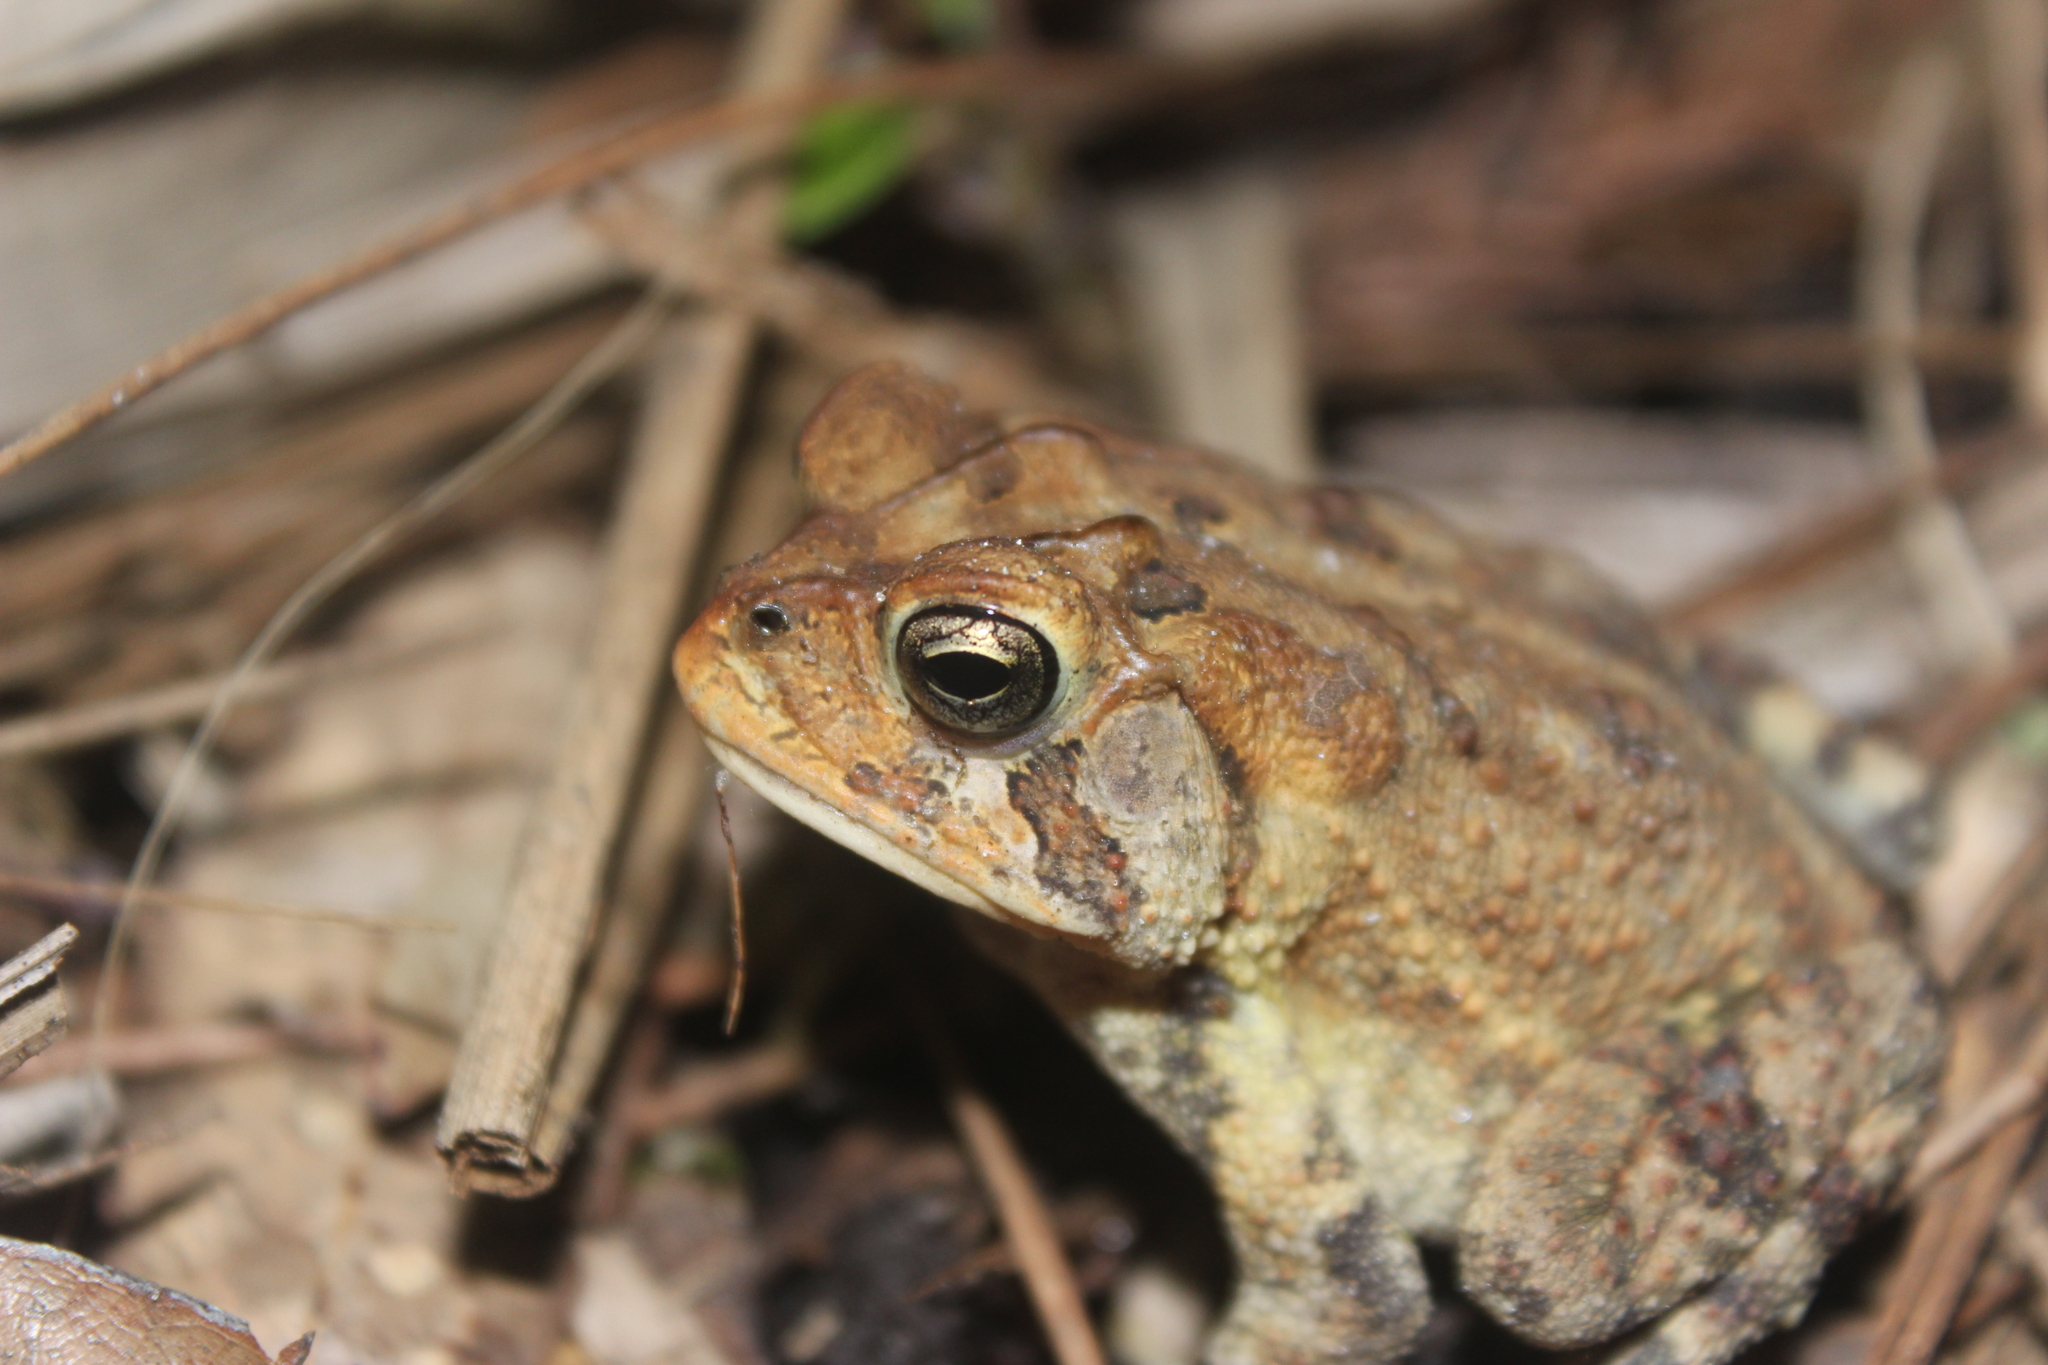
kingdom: Animalia
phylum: Chordata
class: Amphibia
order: Anura
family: Bufonidae
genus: Anaxyrus
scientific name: Anaxyrus terrestris
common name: Southern toad
